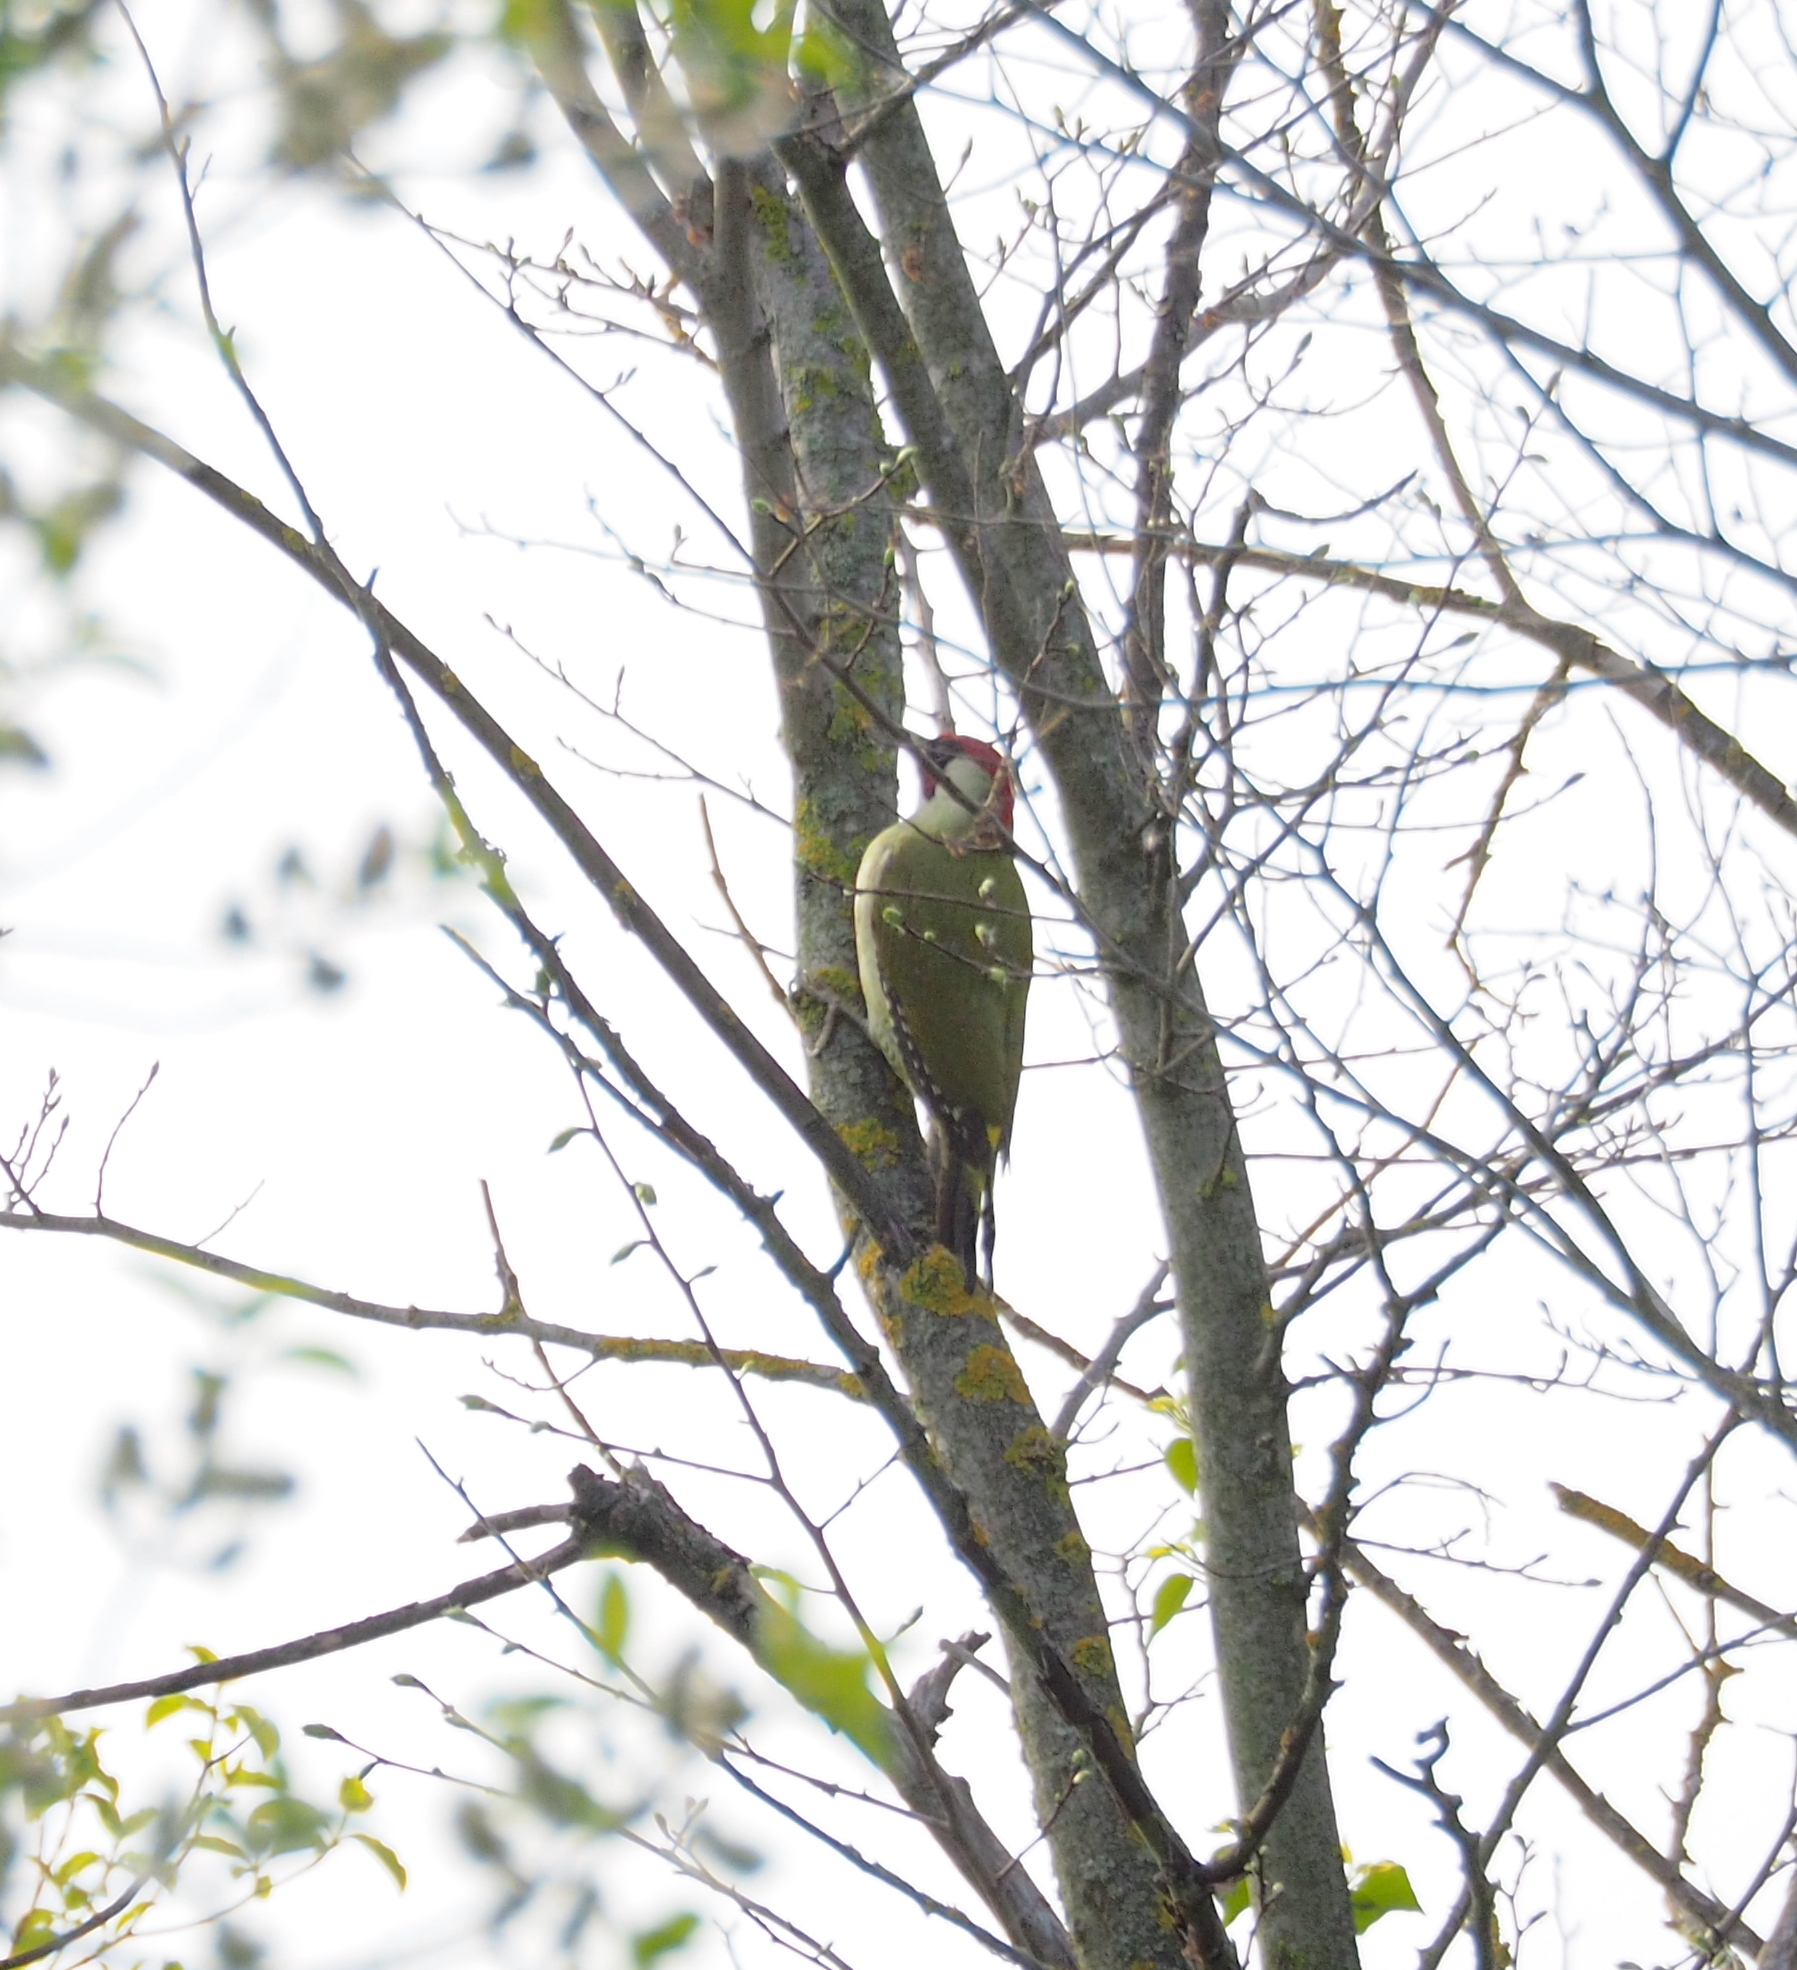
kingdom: Animalia
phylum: Chordata
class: Aves
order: Piciformes
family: Picidae
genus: Picus
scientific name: Picus viridis
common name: European green woodpecker
